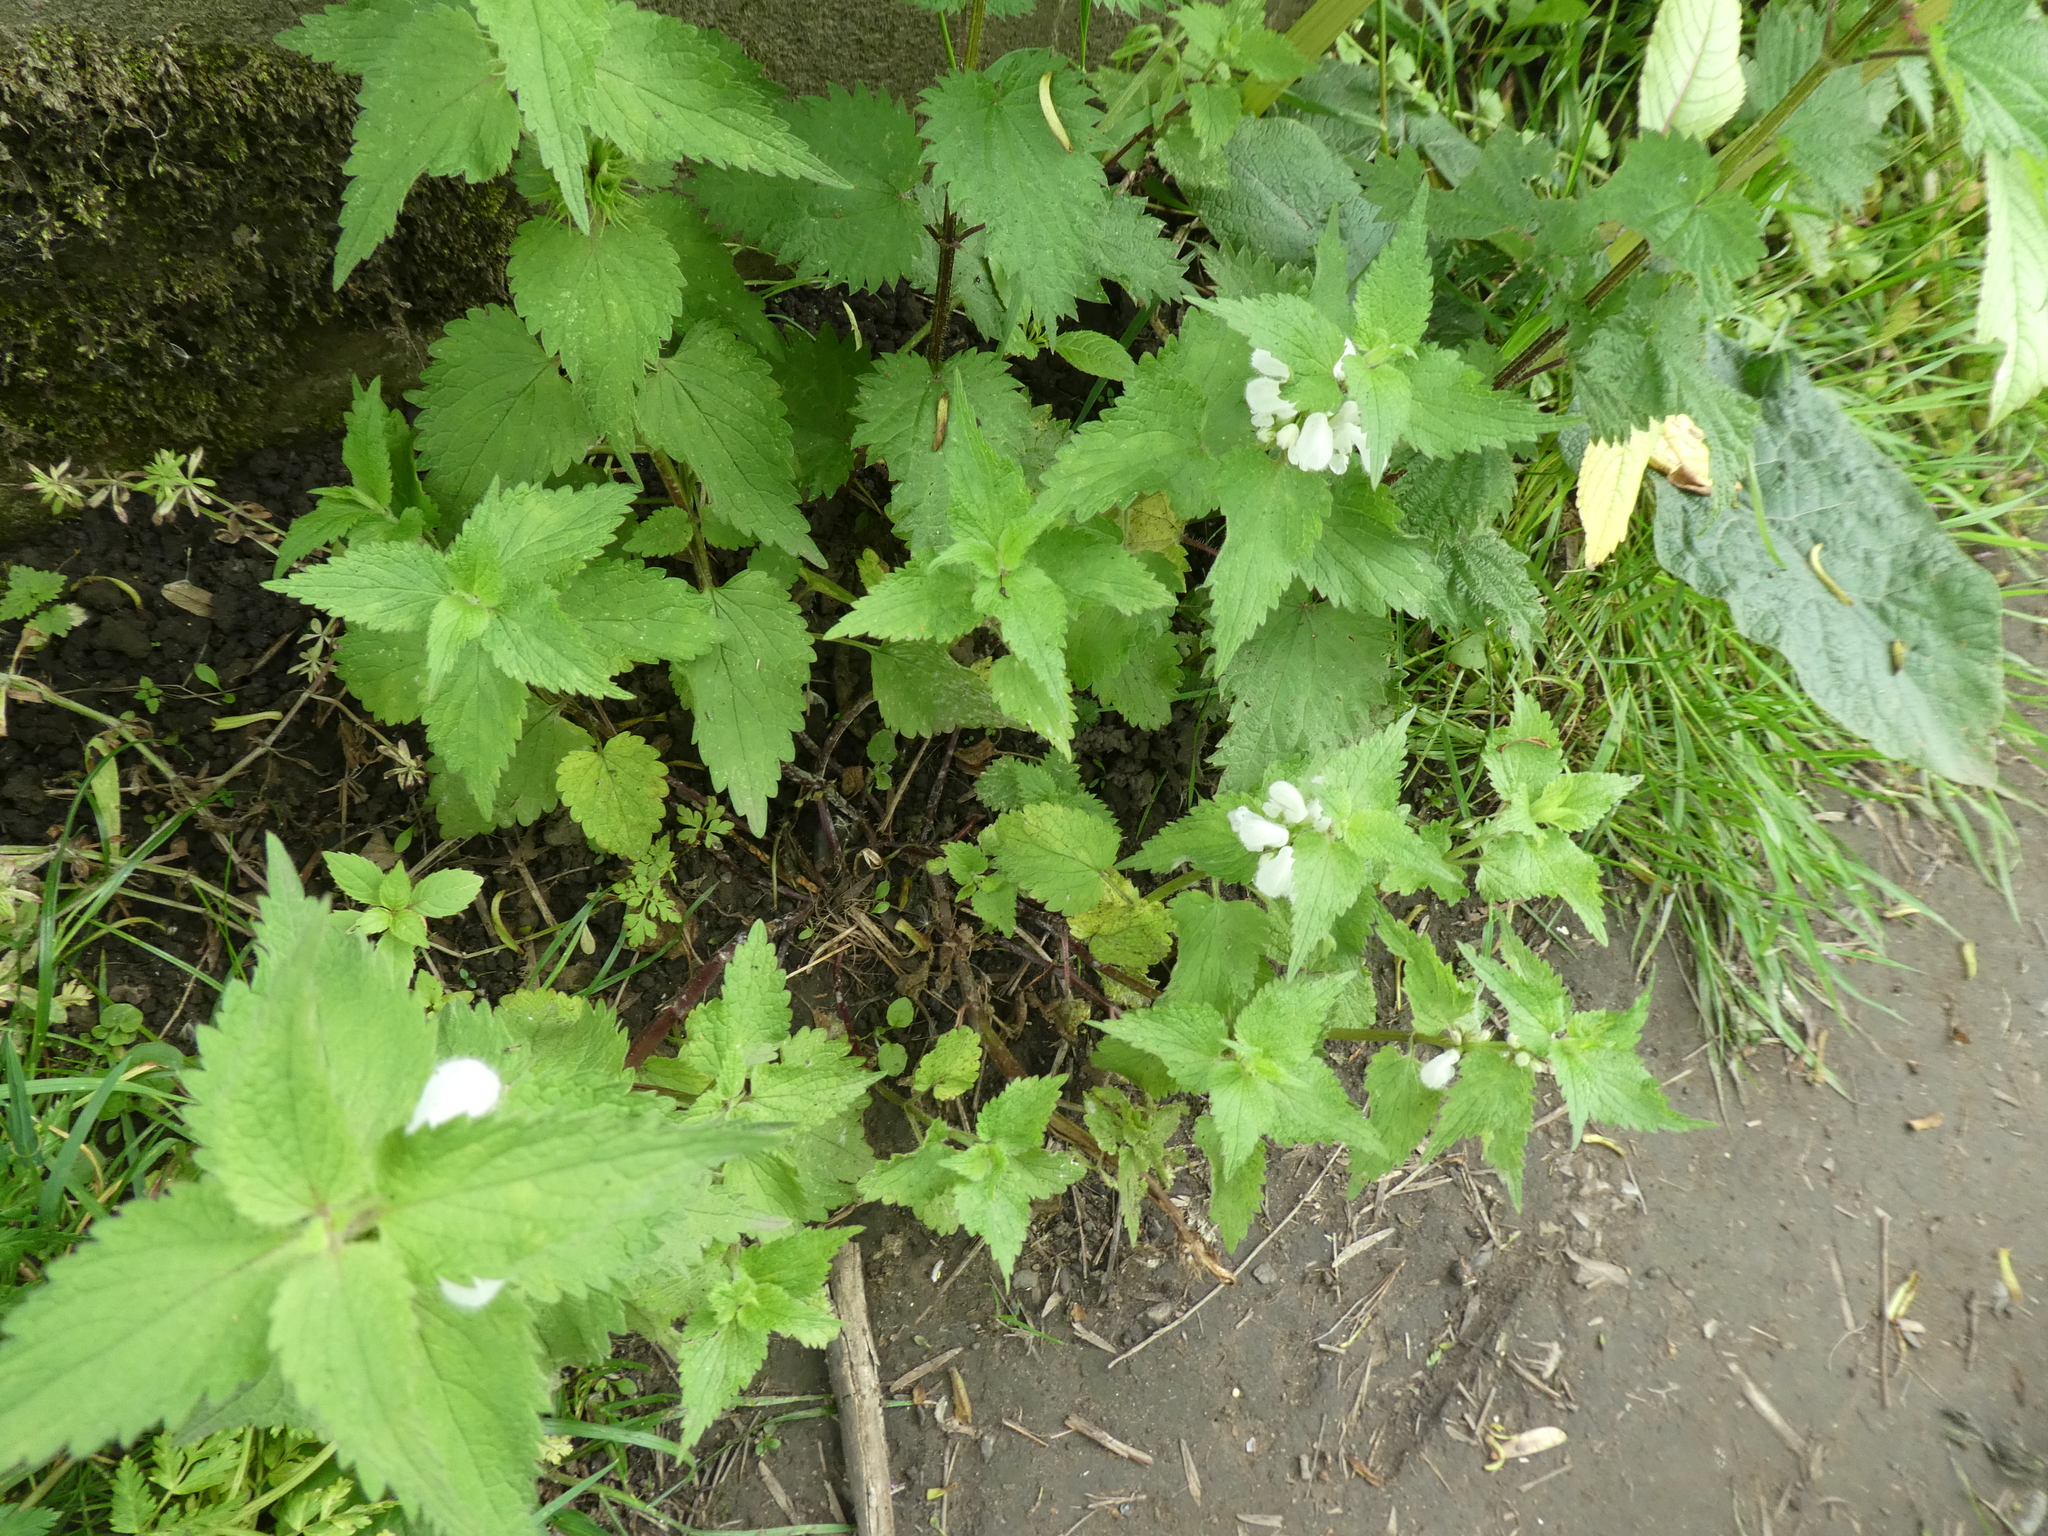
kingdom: Plantae
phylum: Tracheophyta
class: Magnoliopsida
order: Lamiales
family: Lamiaceae
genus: Lamium
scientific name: Lamium album
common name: White dead-nettle
